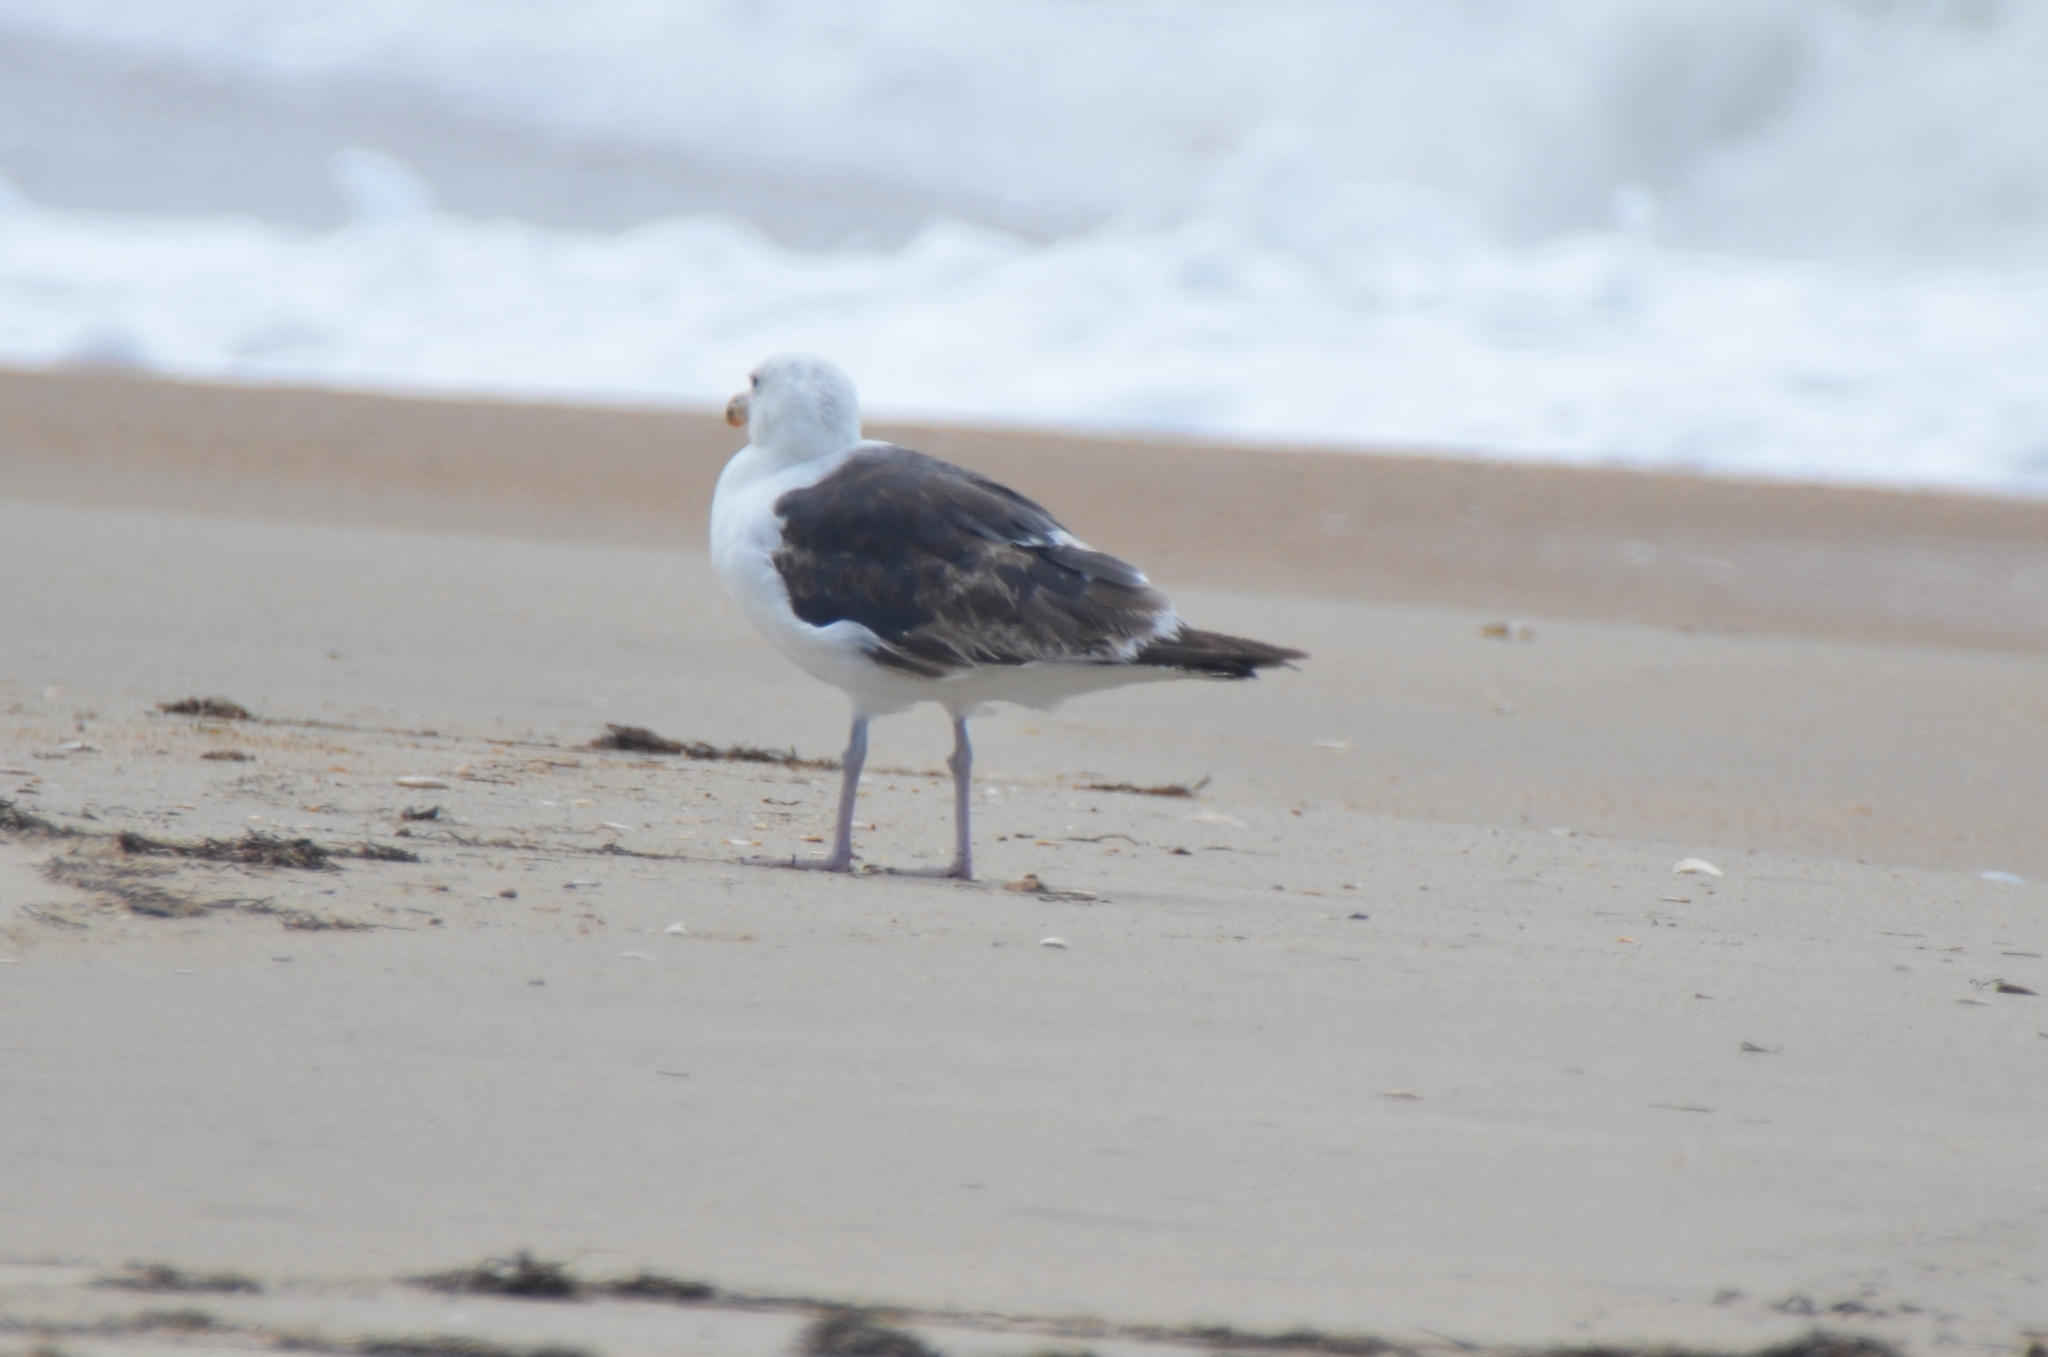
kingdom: Animalia
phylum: Chordata
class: Aves
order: Charadriiformes
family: Laridae
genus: Larus
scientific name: Larus marinus
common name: Great black-backed gull
